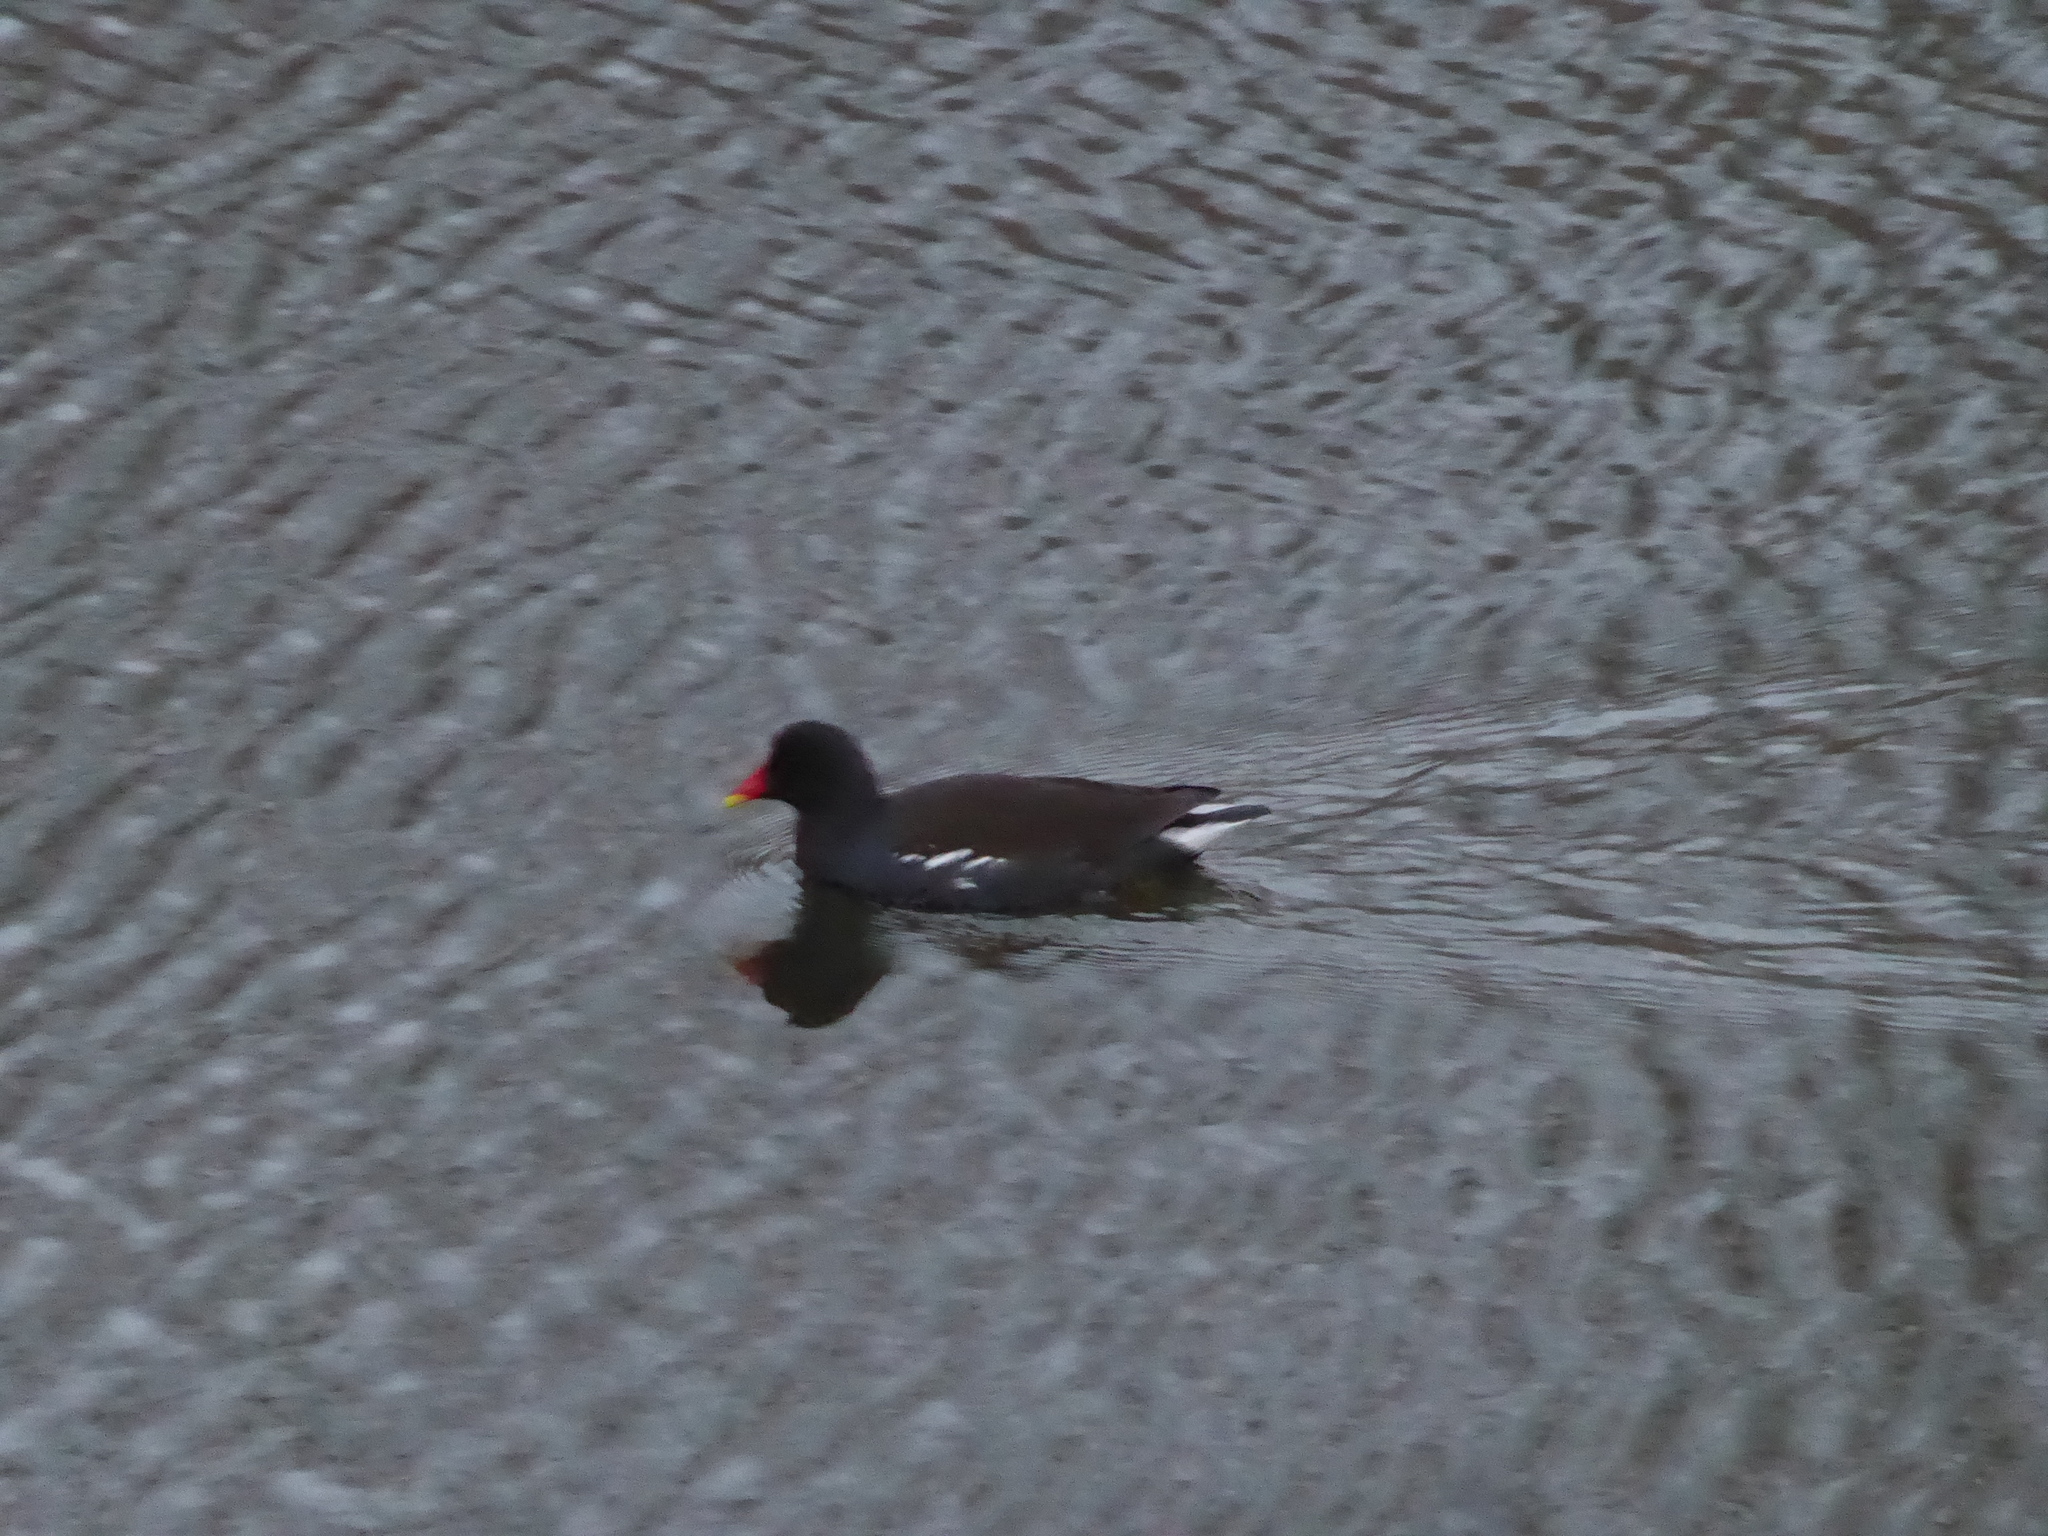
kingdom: Animalia
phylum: Chordata
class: Aves
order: Gruiformes
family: Rallidae
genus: Gallinula
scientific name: Gallinula chloropus
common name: Common moorhen
